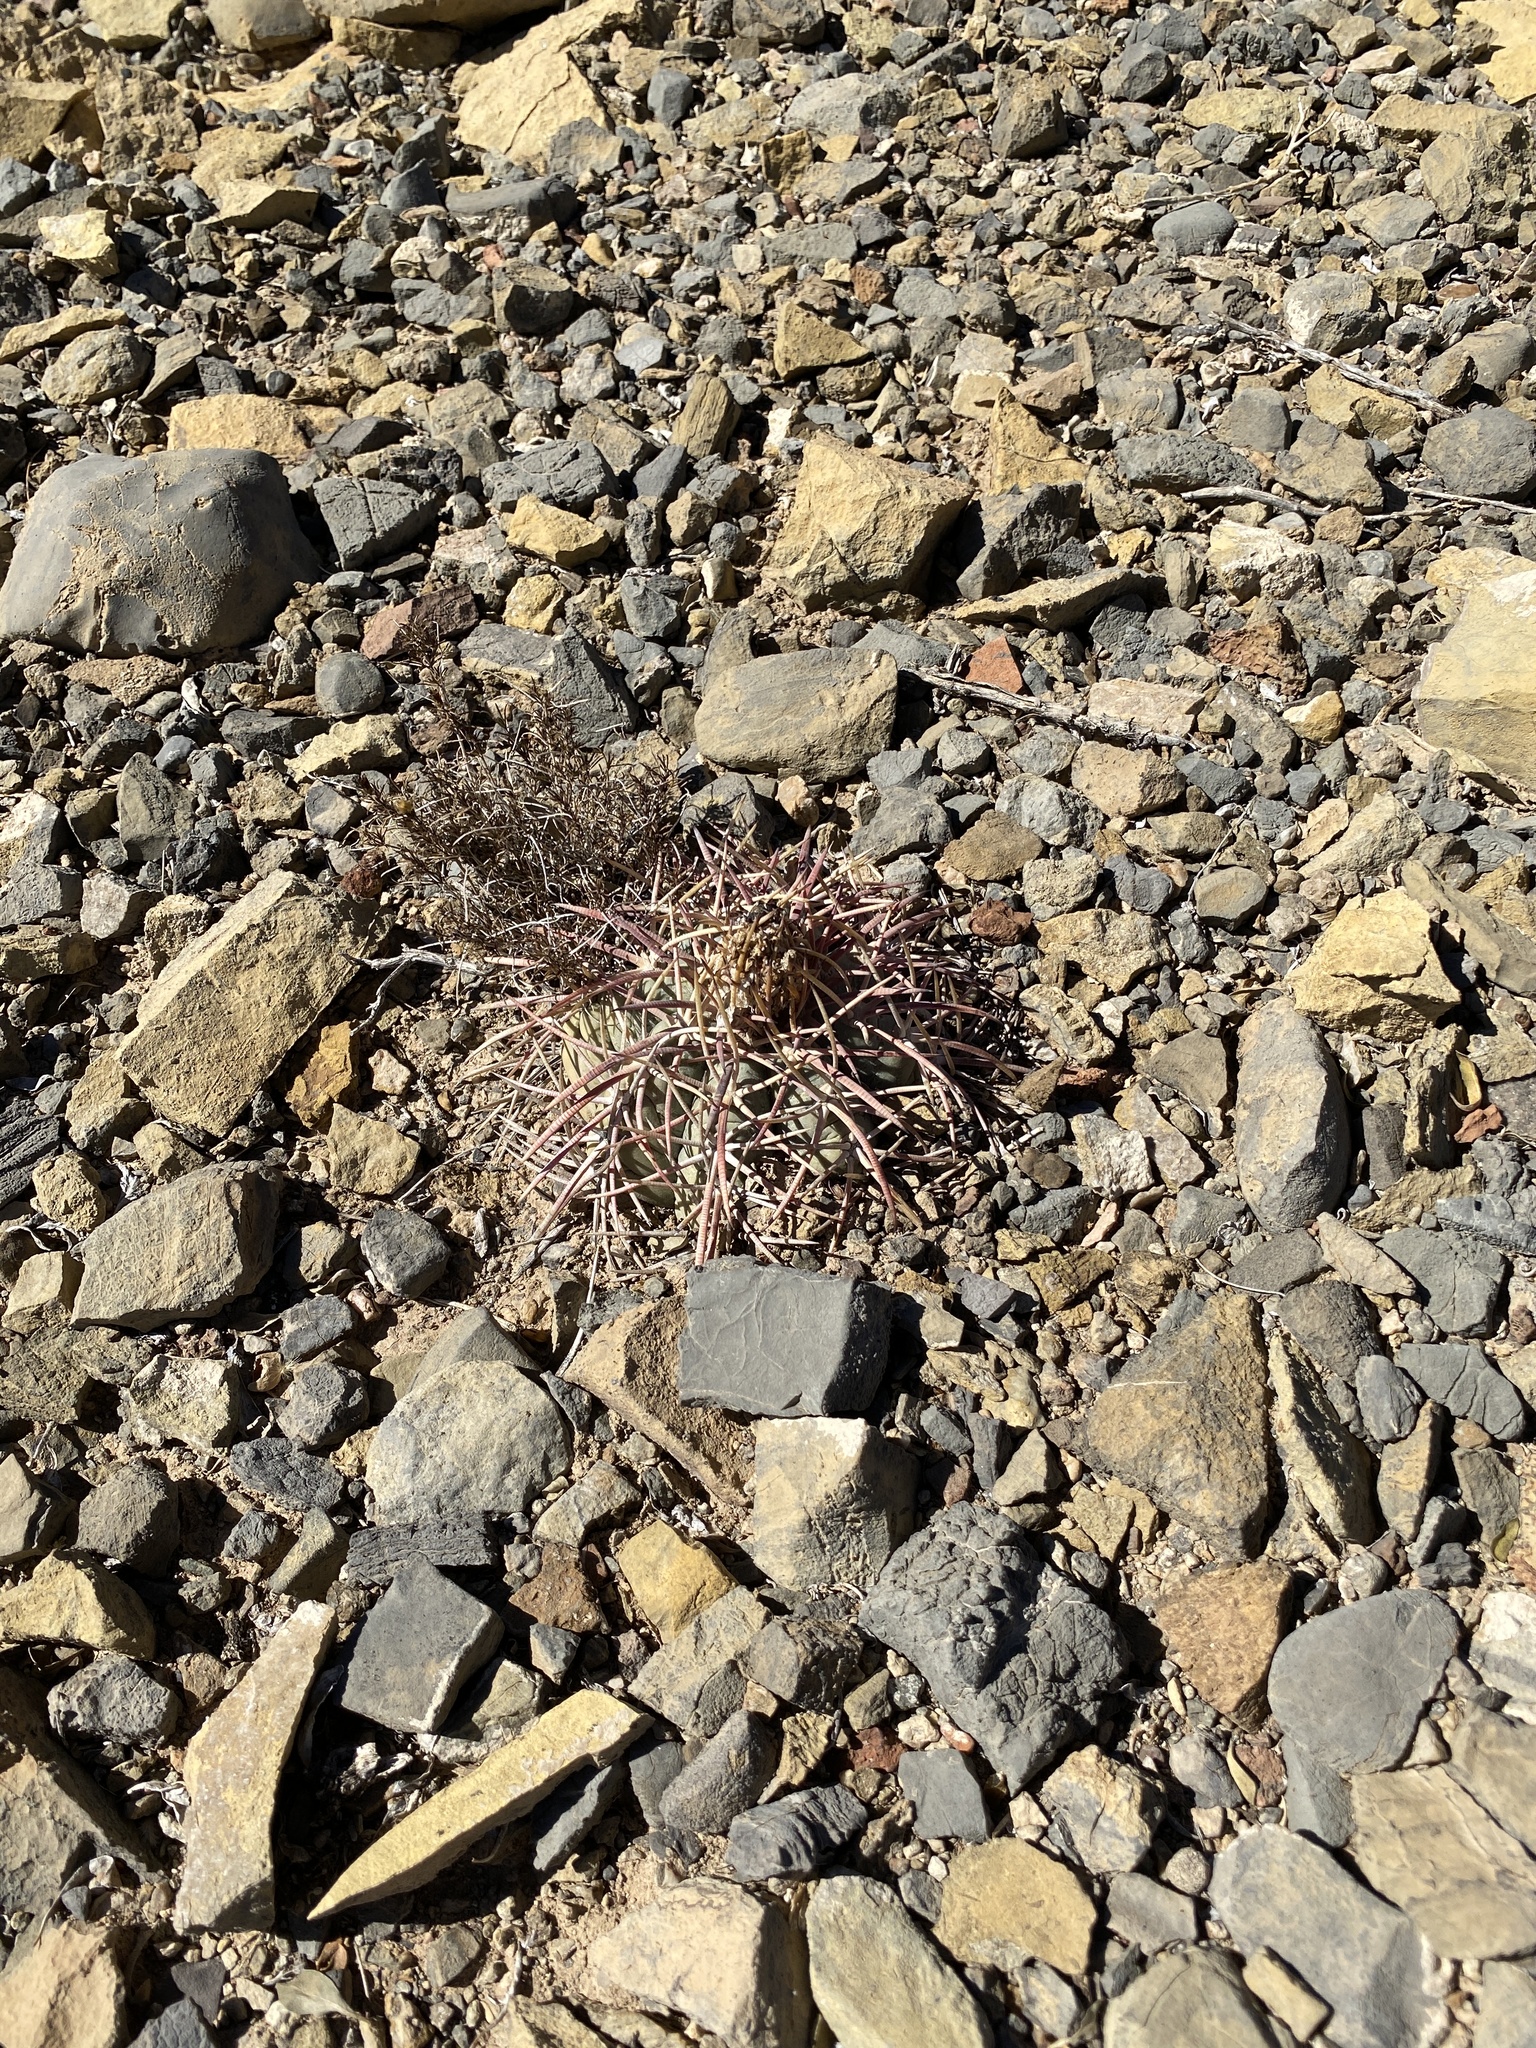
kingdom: Plantae
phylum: Tracheophyta
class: Magnoliopsida
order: Caryophyllales
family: Cactaceae
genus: Echinocactus
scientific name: Echinocactus horizonthalonius
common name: Devilshead
